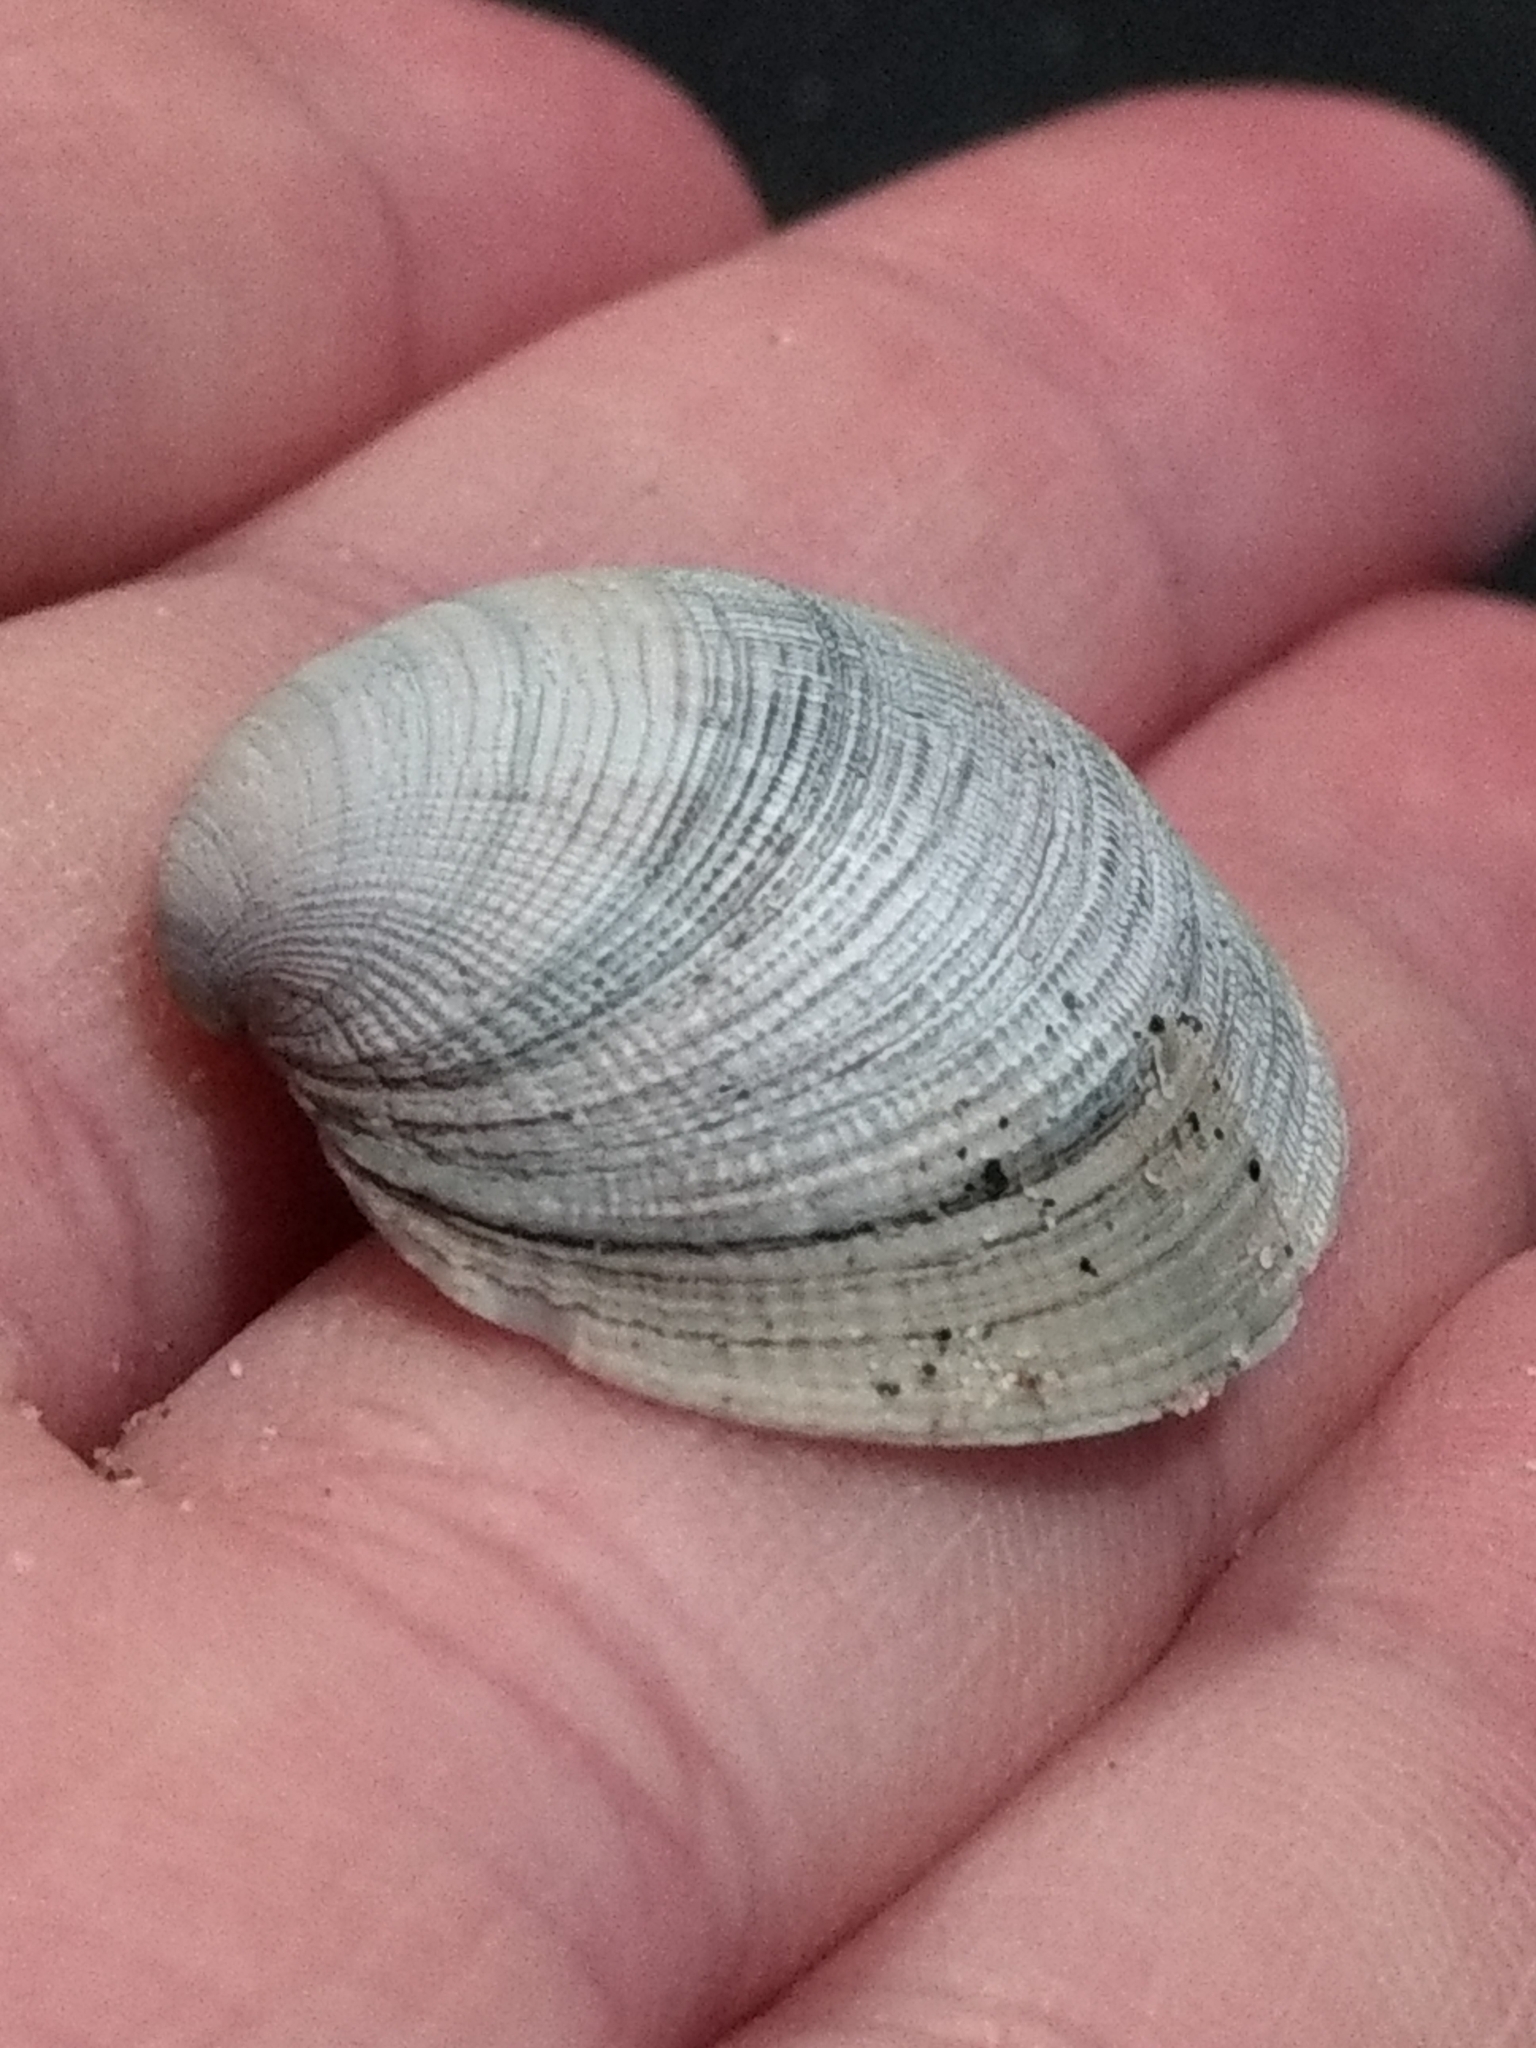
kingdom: Animalia
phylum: Mollusca
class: Bivalvia
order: Venerida
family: Veneridae
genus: Leukoma
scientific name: Leukoma staminea
